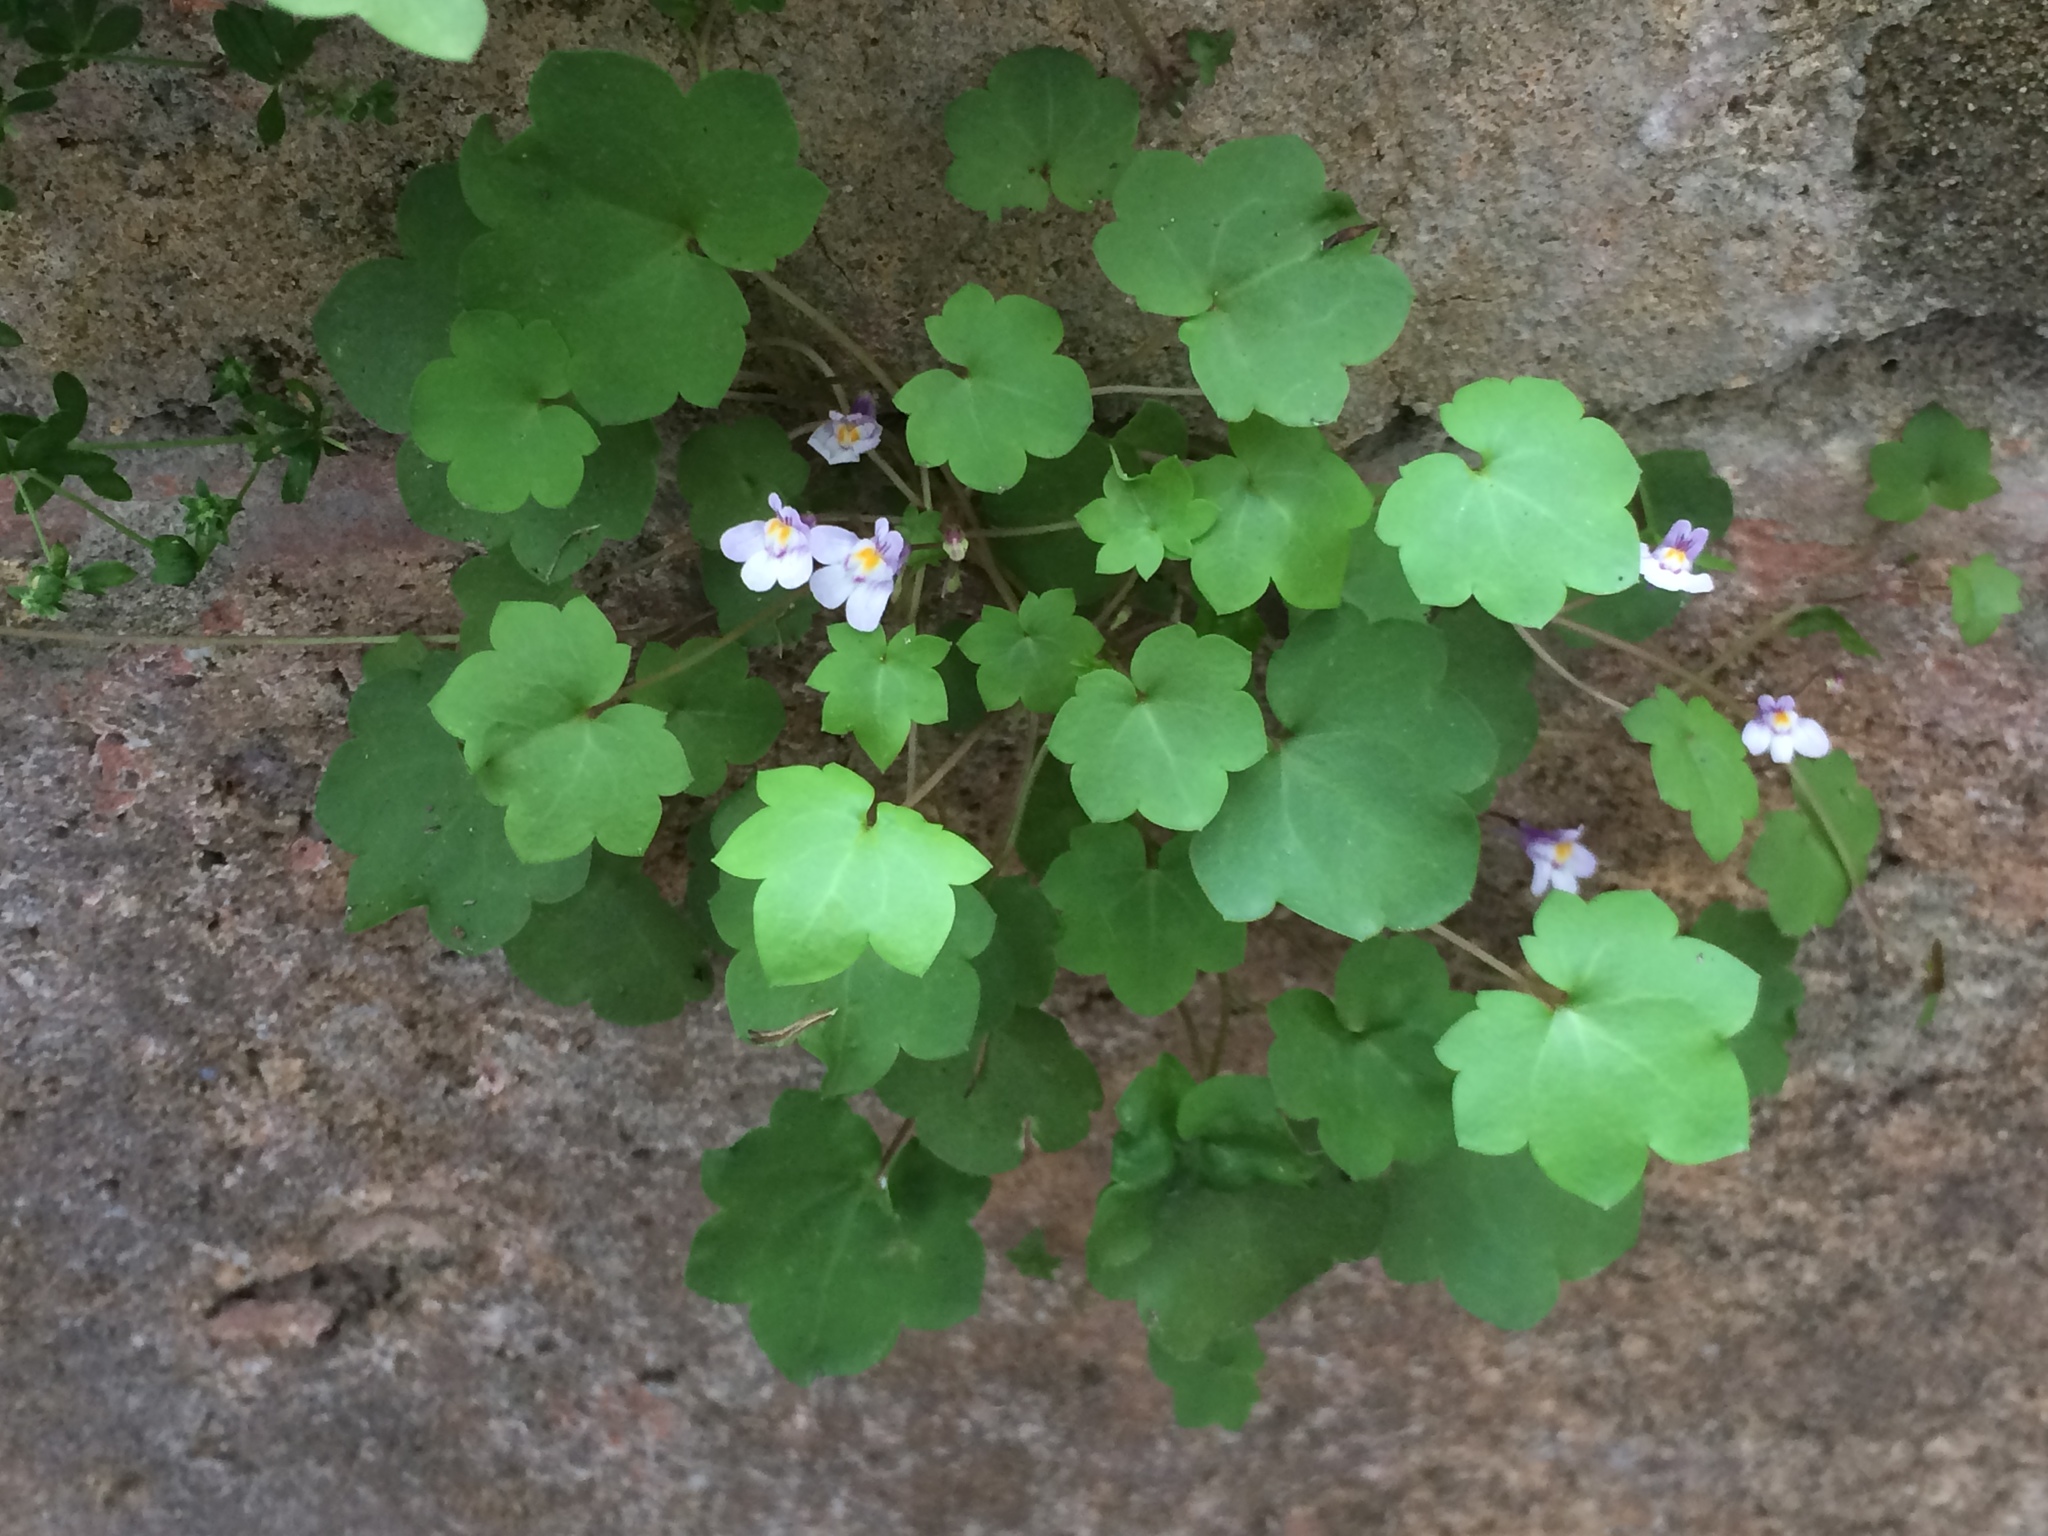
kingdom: Plantae
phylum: Tracheophyta
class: Magnoliopsida
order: Lamiales
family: Plantaginaceae
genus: Cymbalaria
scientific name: Cymbalaria muralis
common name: Ivy-leaved toadflax
